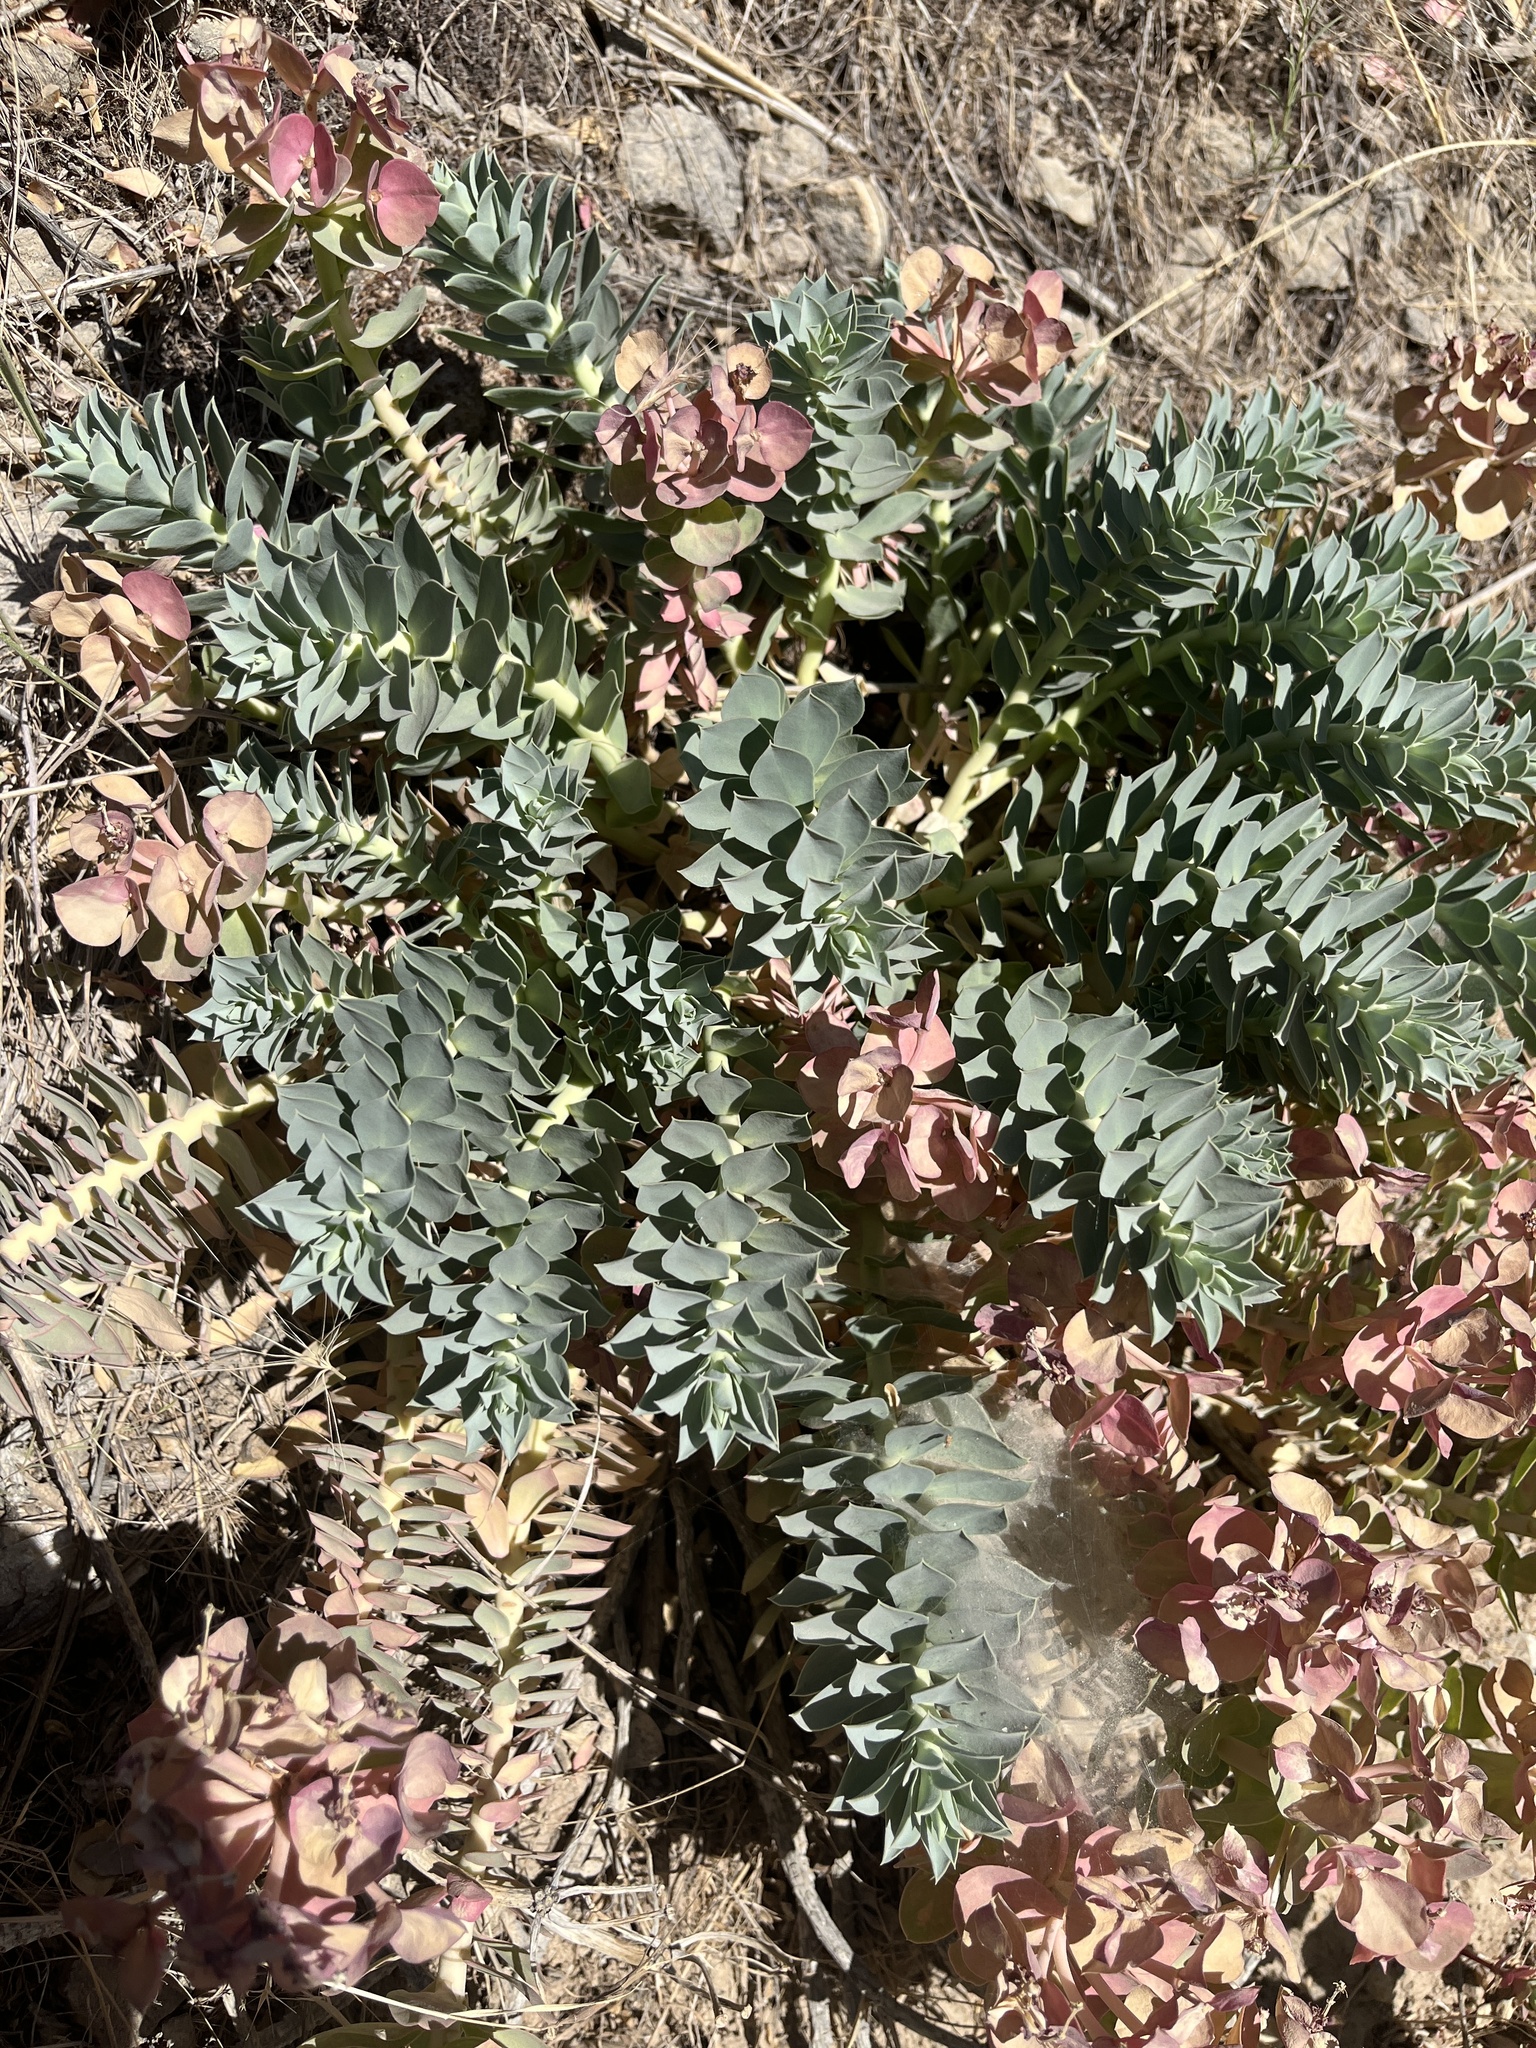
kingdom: Plantae
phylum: Tracheophyta
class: Magnoliopsida
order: Malpighiales
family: Euphorbiaceae
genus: Euphorbia
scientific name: Euphorbia myrsinites
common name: Myrtle spurge
